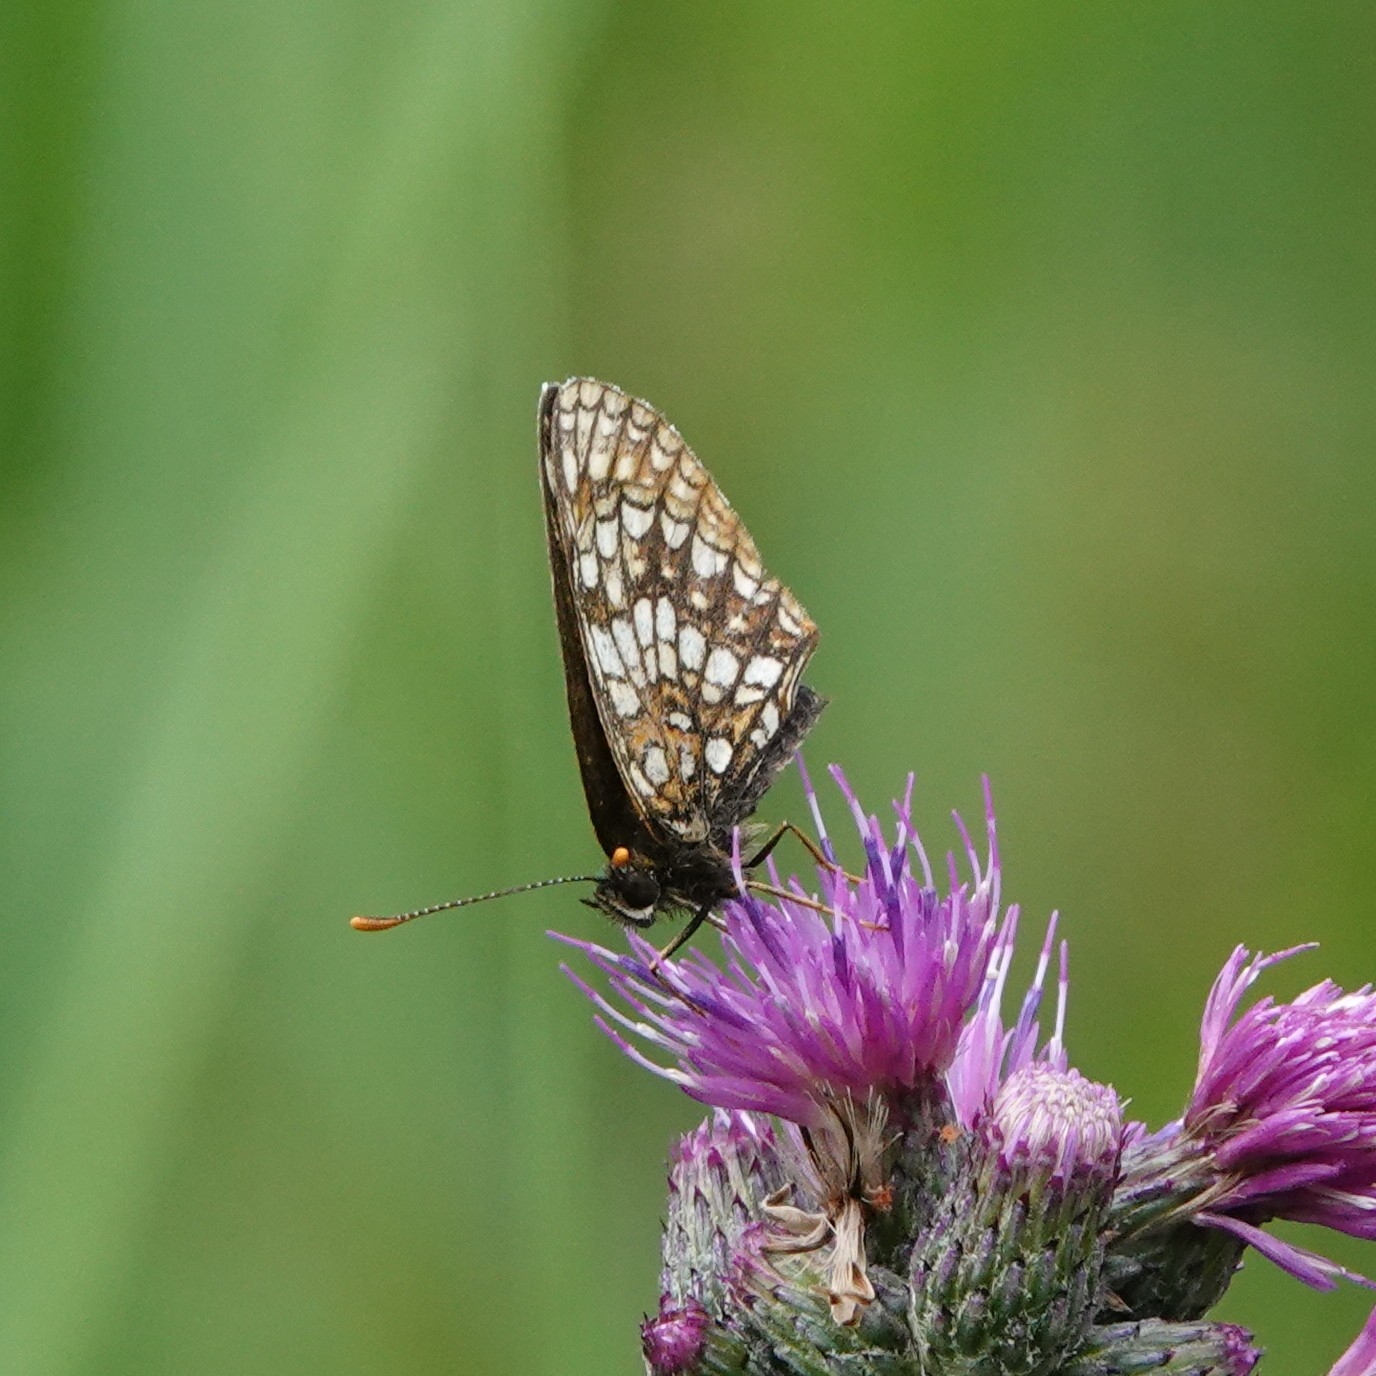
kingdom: Animalia
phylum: Arthropoda
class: Insecta
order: Lepidoptera
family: Nymphalidae
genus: Melitaea
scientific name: Melitaea diamina
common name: False heath fritillary
